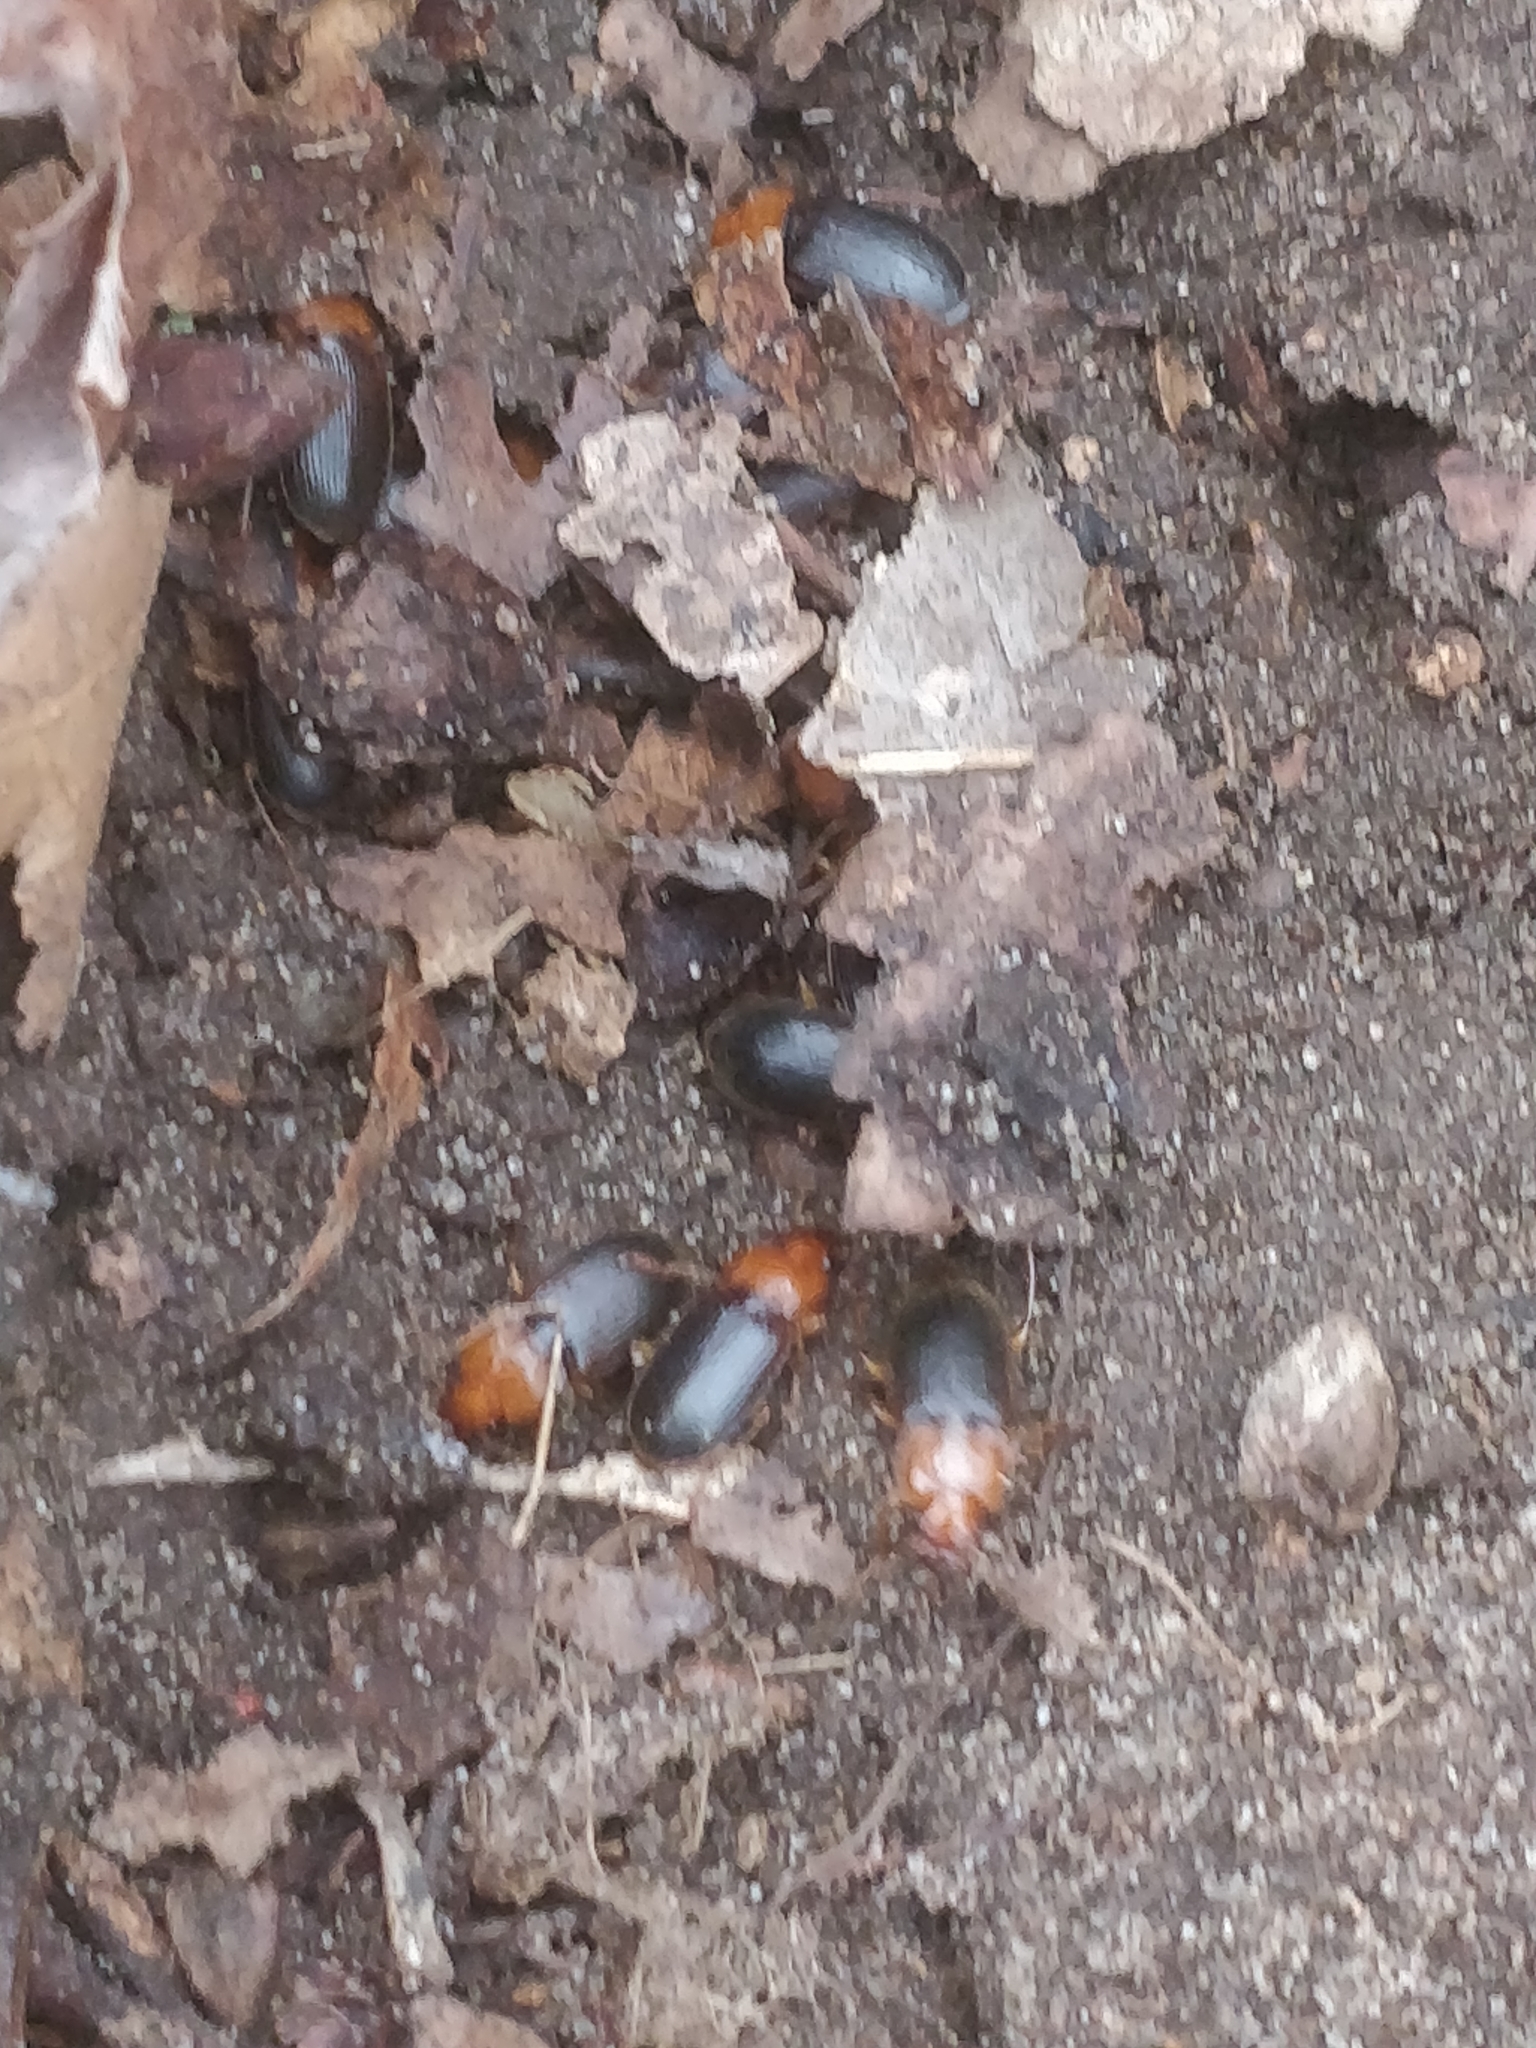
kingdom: Animalia
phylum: Arthropoda
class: Insecta
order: Coleoptera
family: Carabidae
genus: Amphasia
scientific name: Amphasia interstitialis
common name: Red-headed ground beetle
